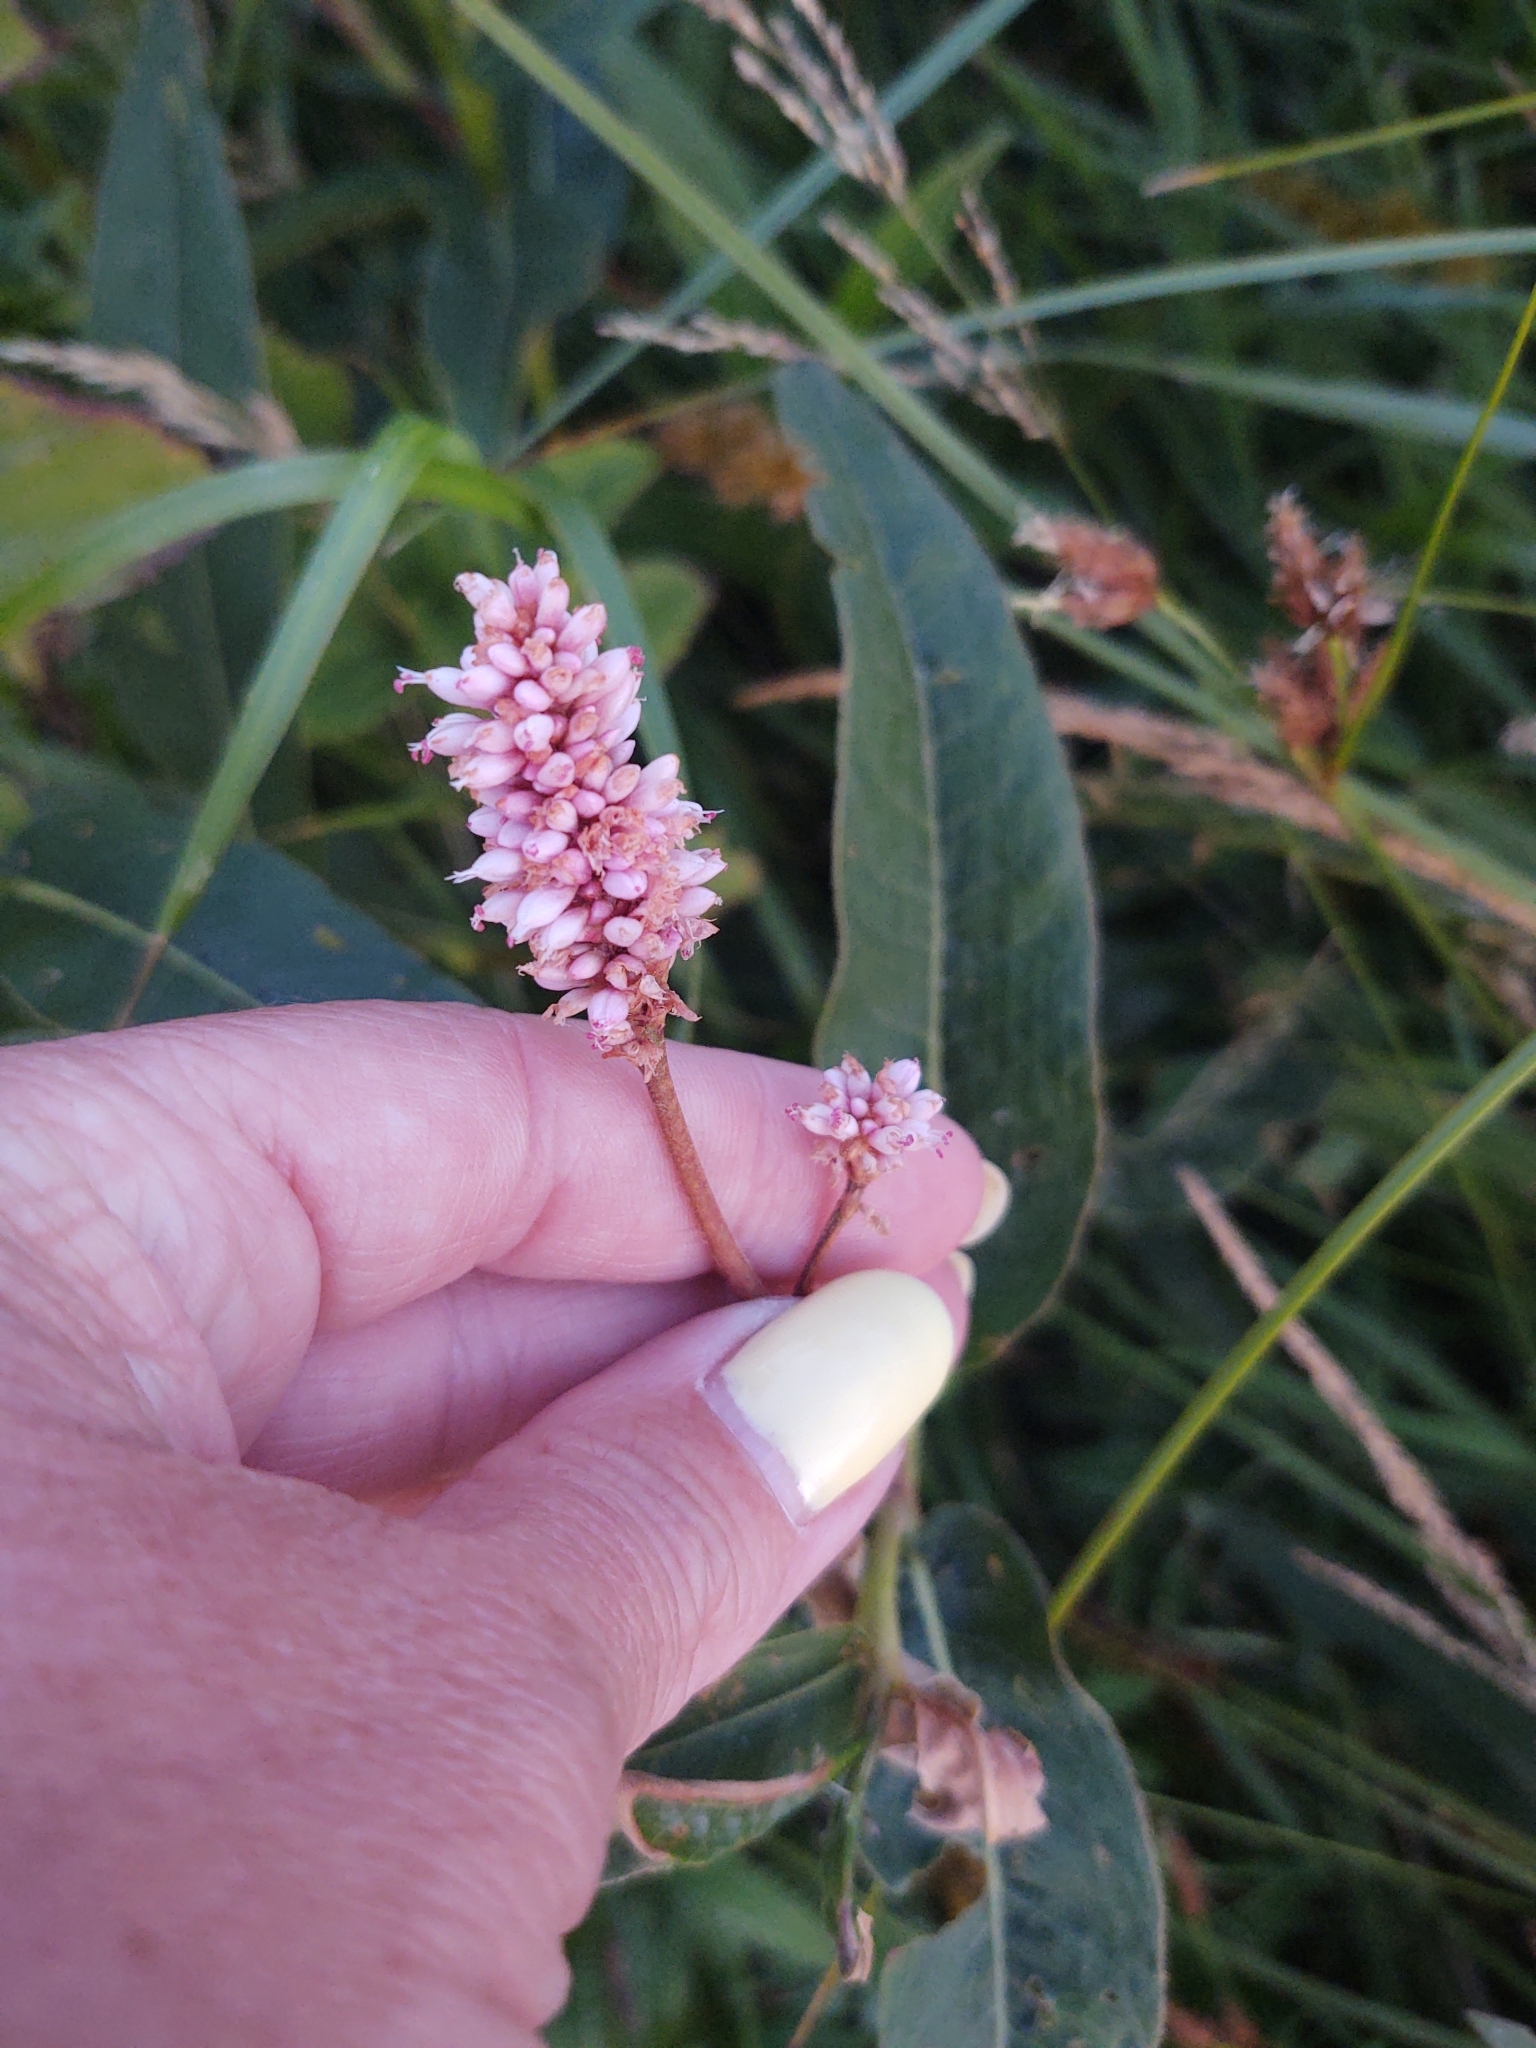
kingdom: Plantae
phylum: Tracheophyta
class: Magnoliopsida
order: Caryophyllales
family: Polygonaceae
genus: Persicaria
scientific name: Persicaria amphibia
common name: Amphibious bistort
